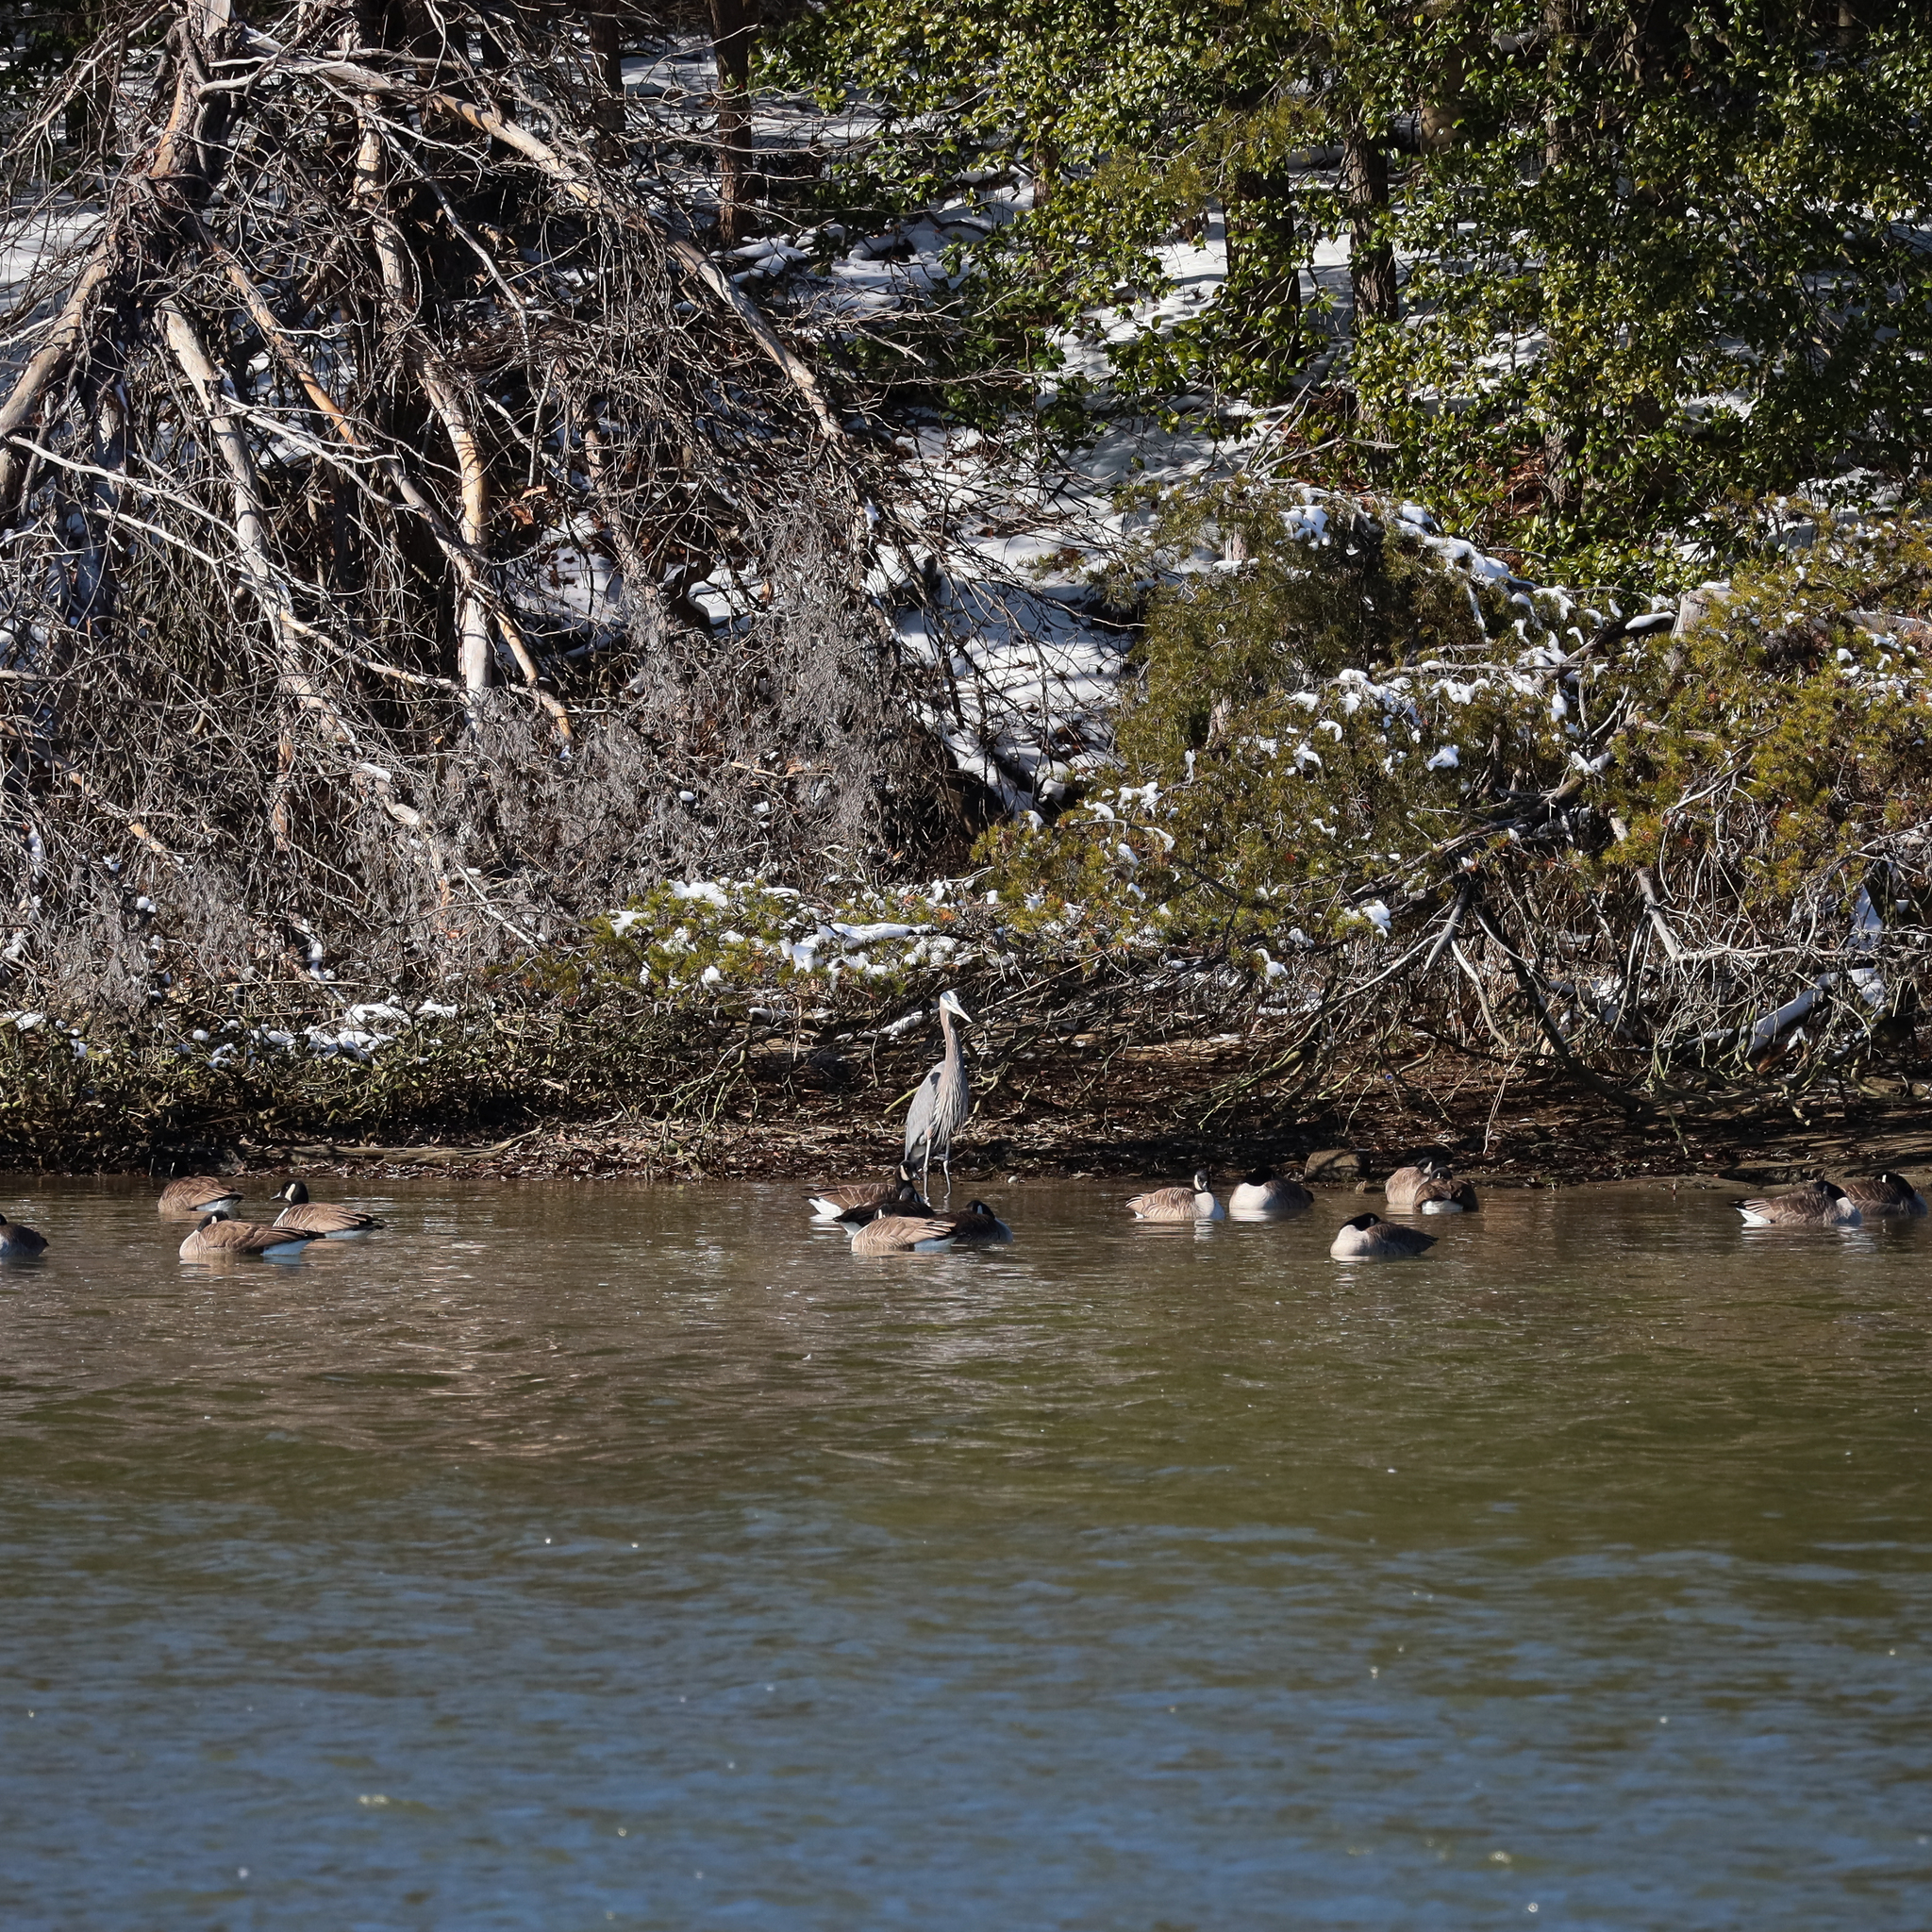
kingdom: Animalia
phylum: Chordata
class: Aves
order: Pelecaniformes
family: Ardeidae
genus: Ardea
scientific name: Ardea herodias
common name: Great blue heron
